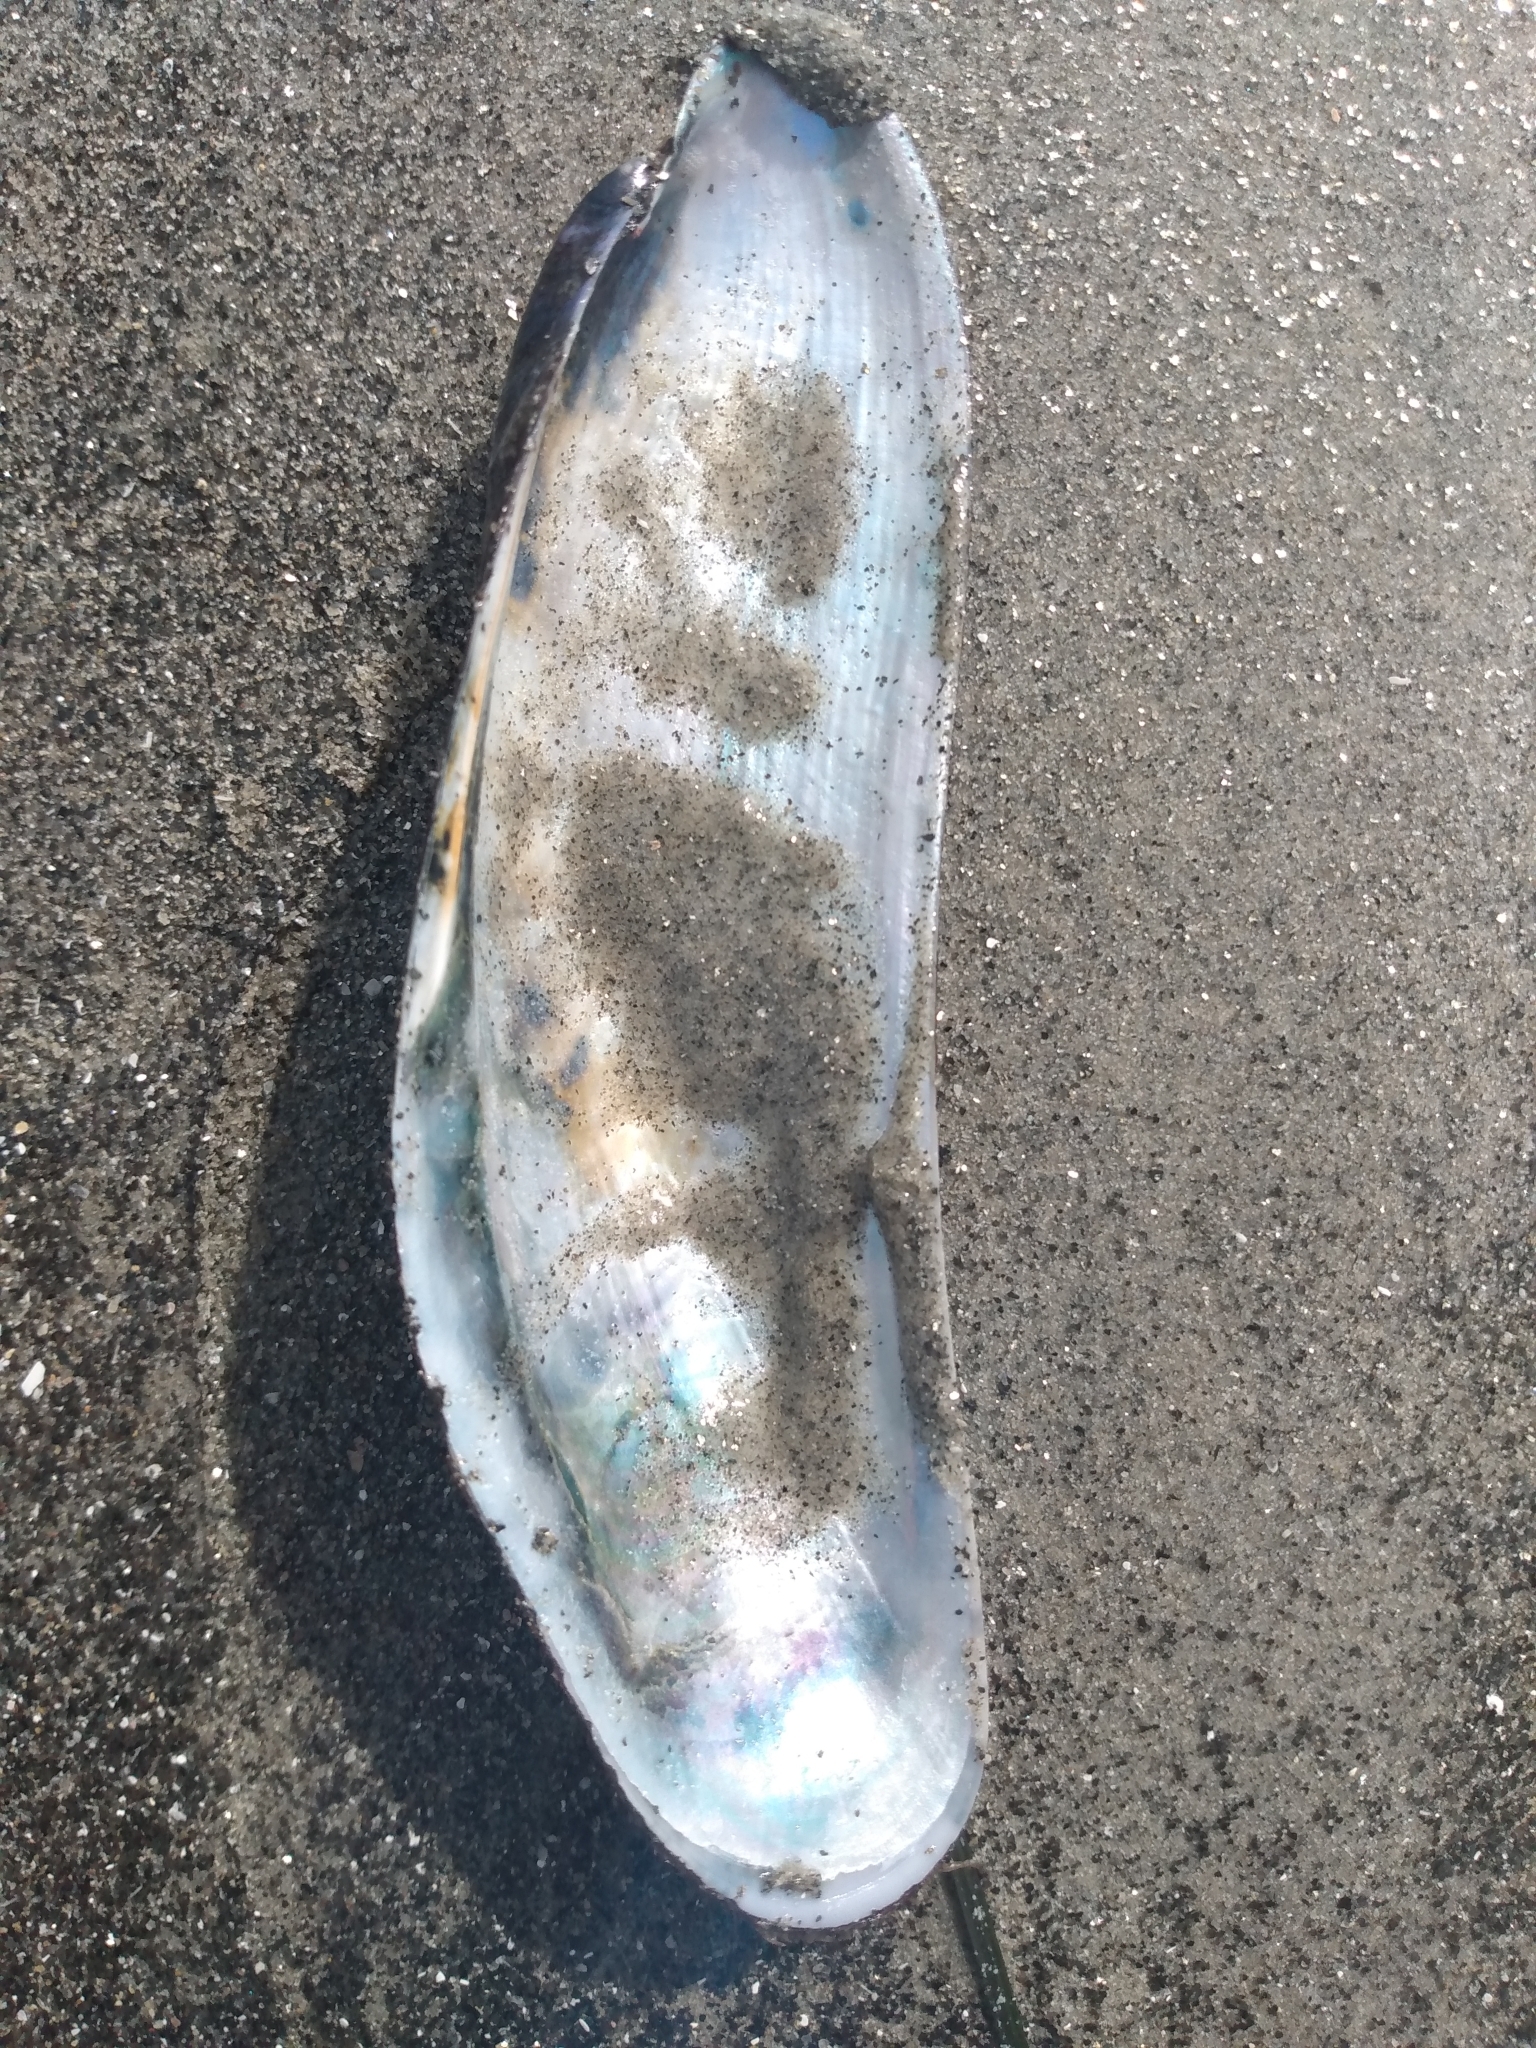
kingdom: Animalia
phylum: Mollusca
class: Bivalvia
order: Mytilida
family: Mytilidae
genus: Modiolatus
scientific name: Modiolatus neglectus
